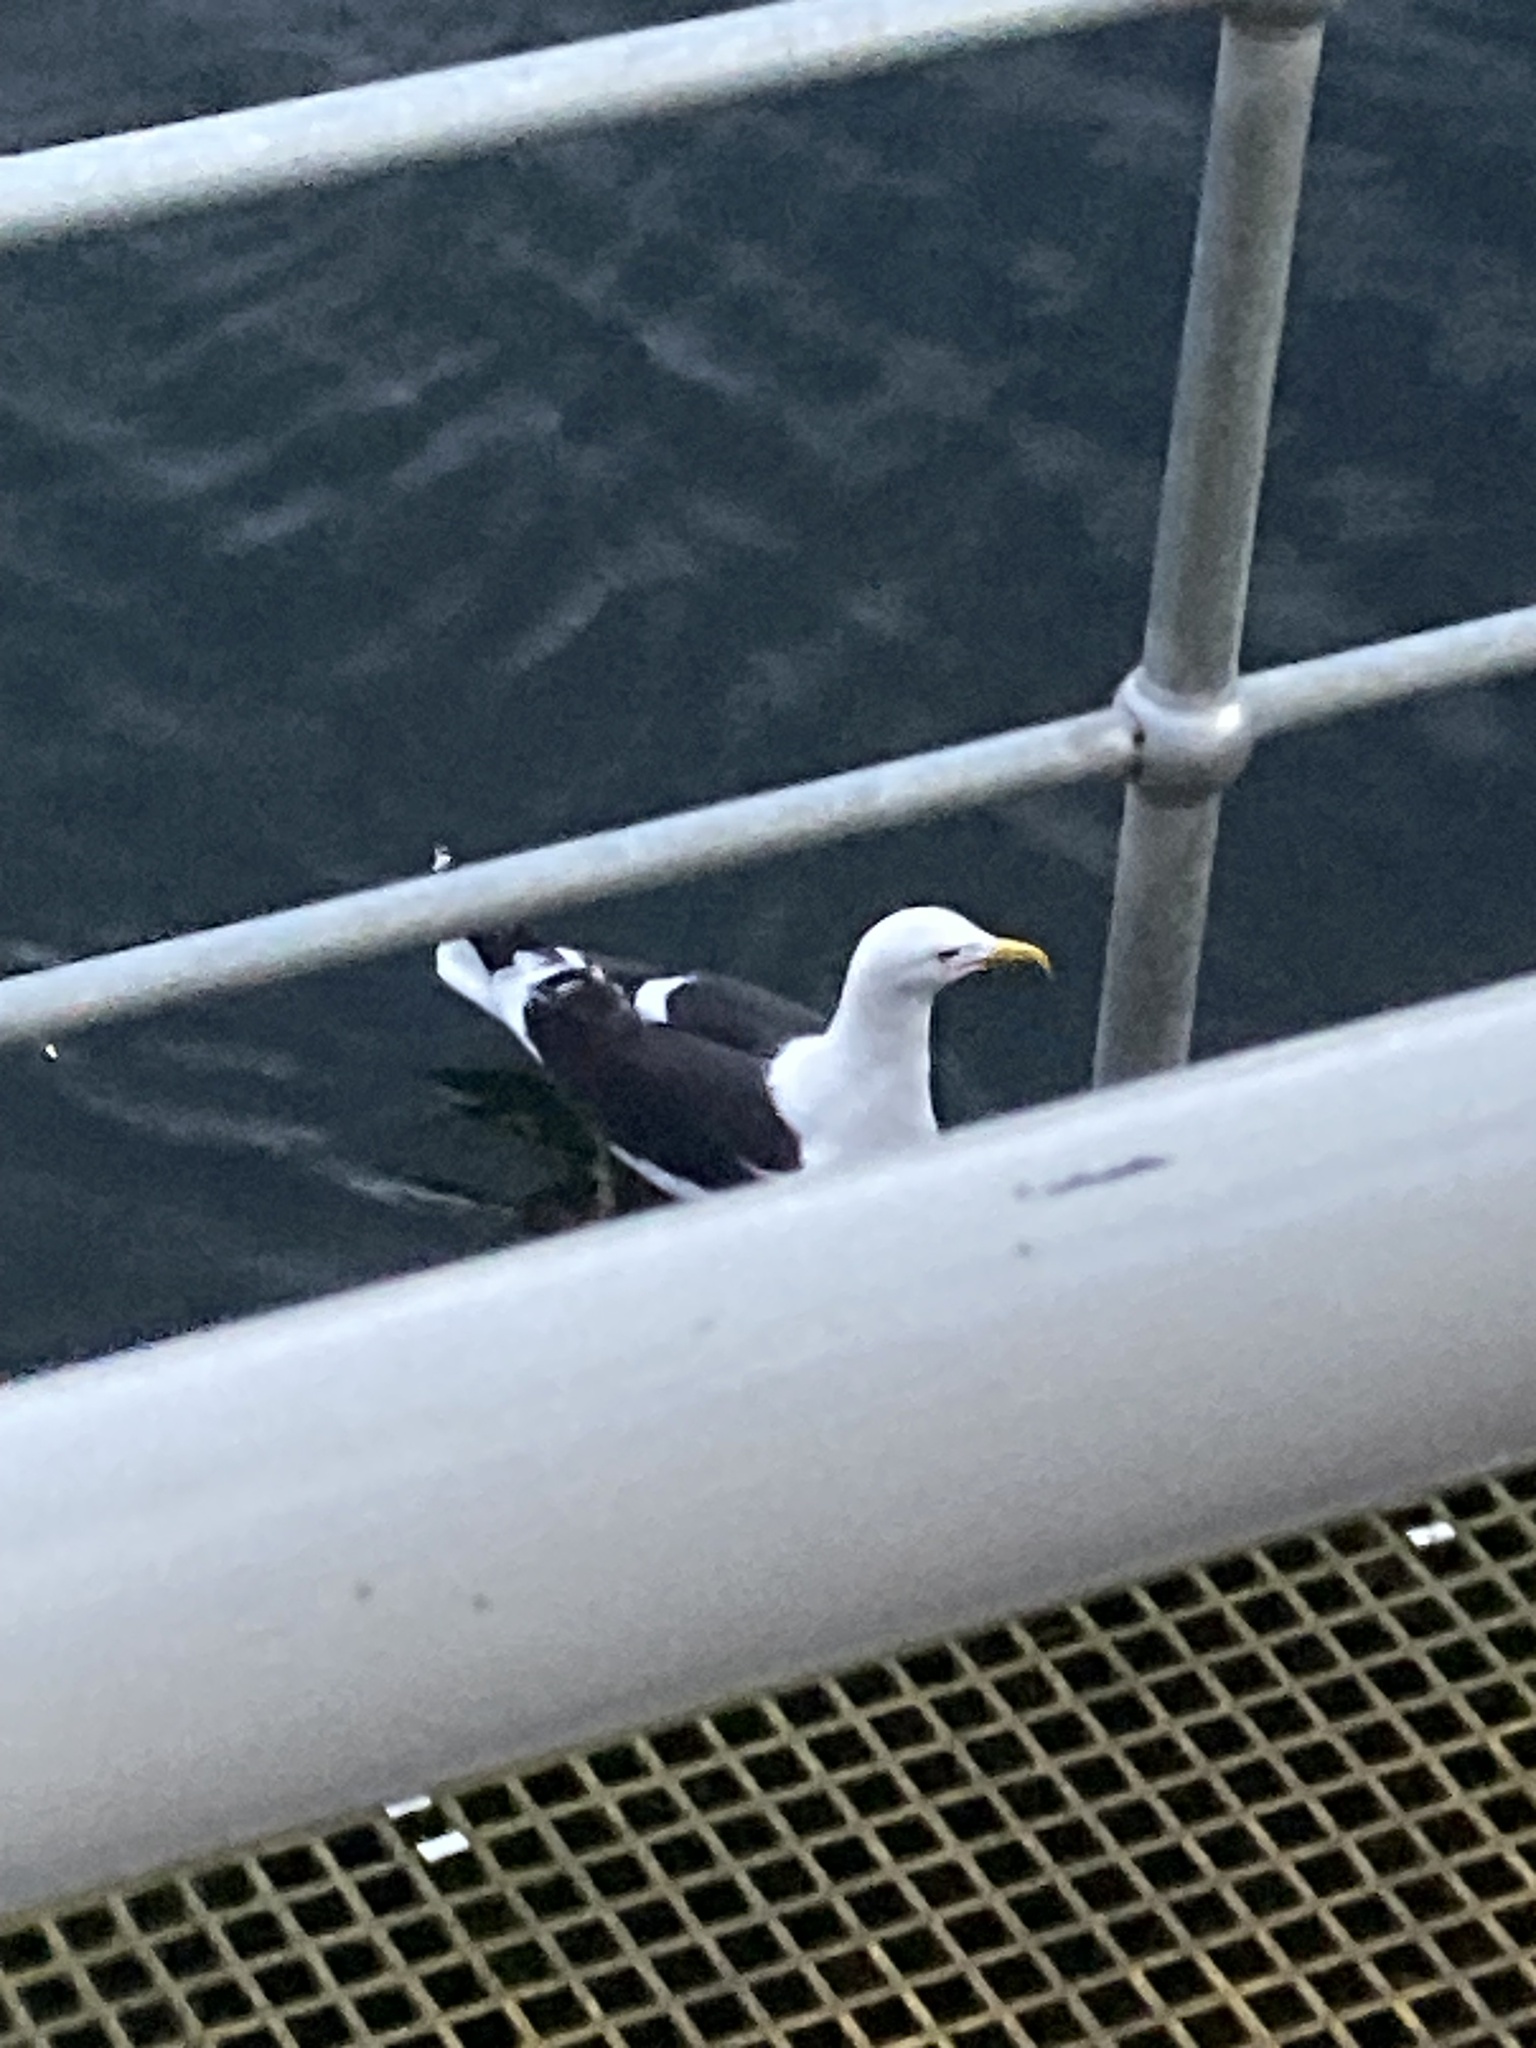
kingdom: Animalia
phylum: Chordata
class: Aves
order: Charadriiformes
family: Laridae
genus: Larus
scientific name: Larus dominicanus
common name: Kelp gull
